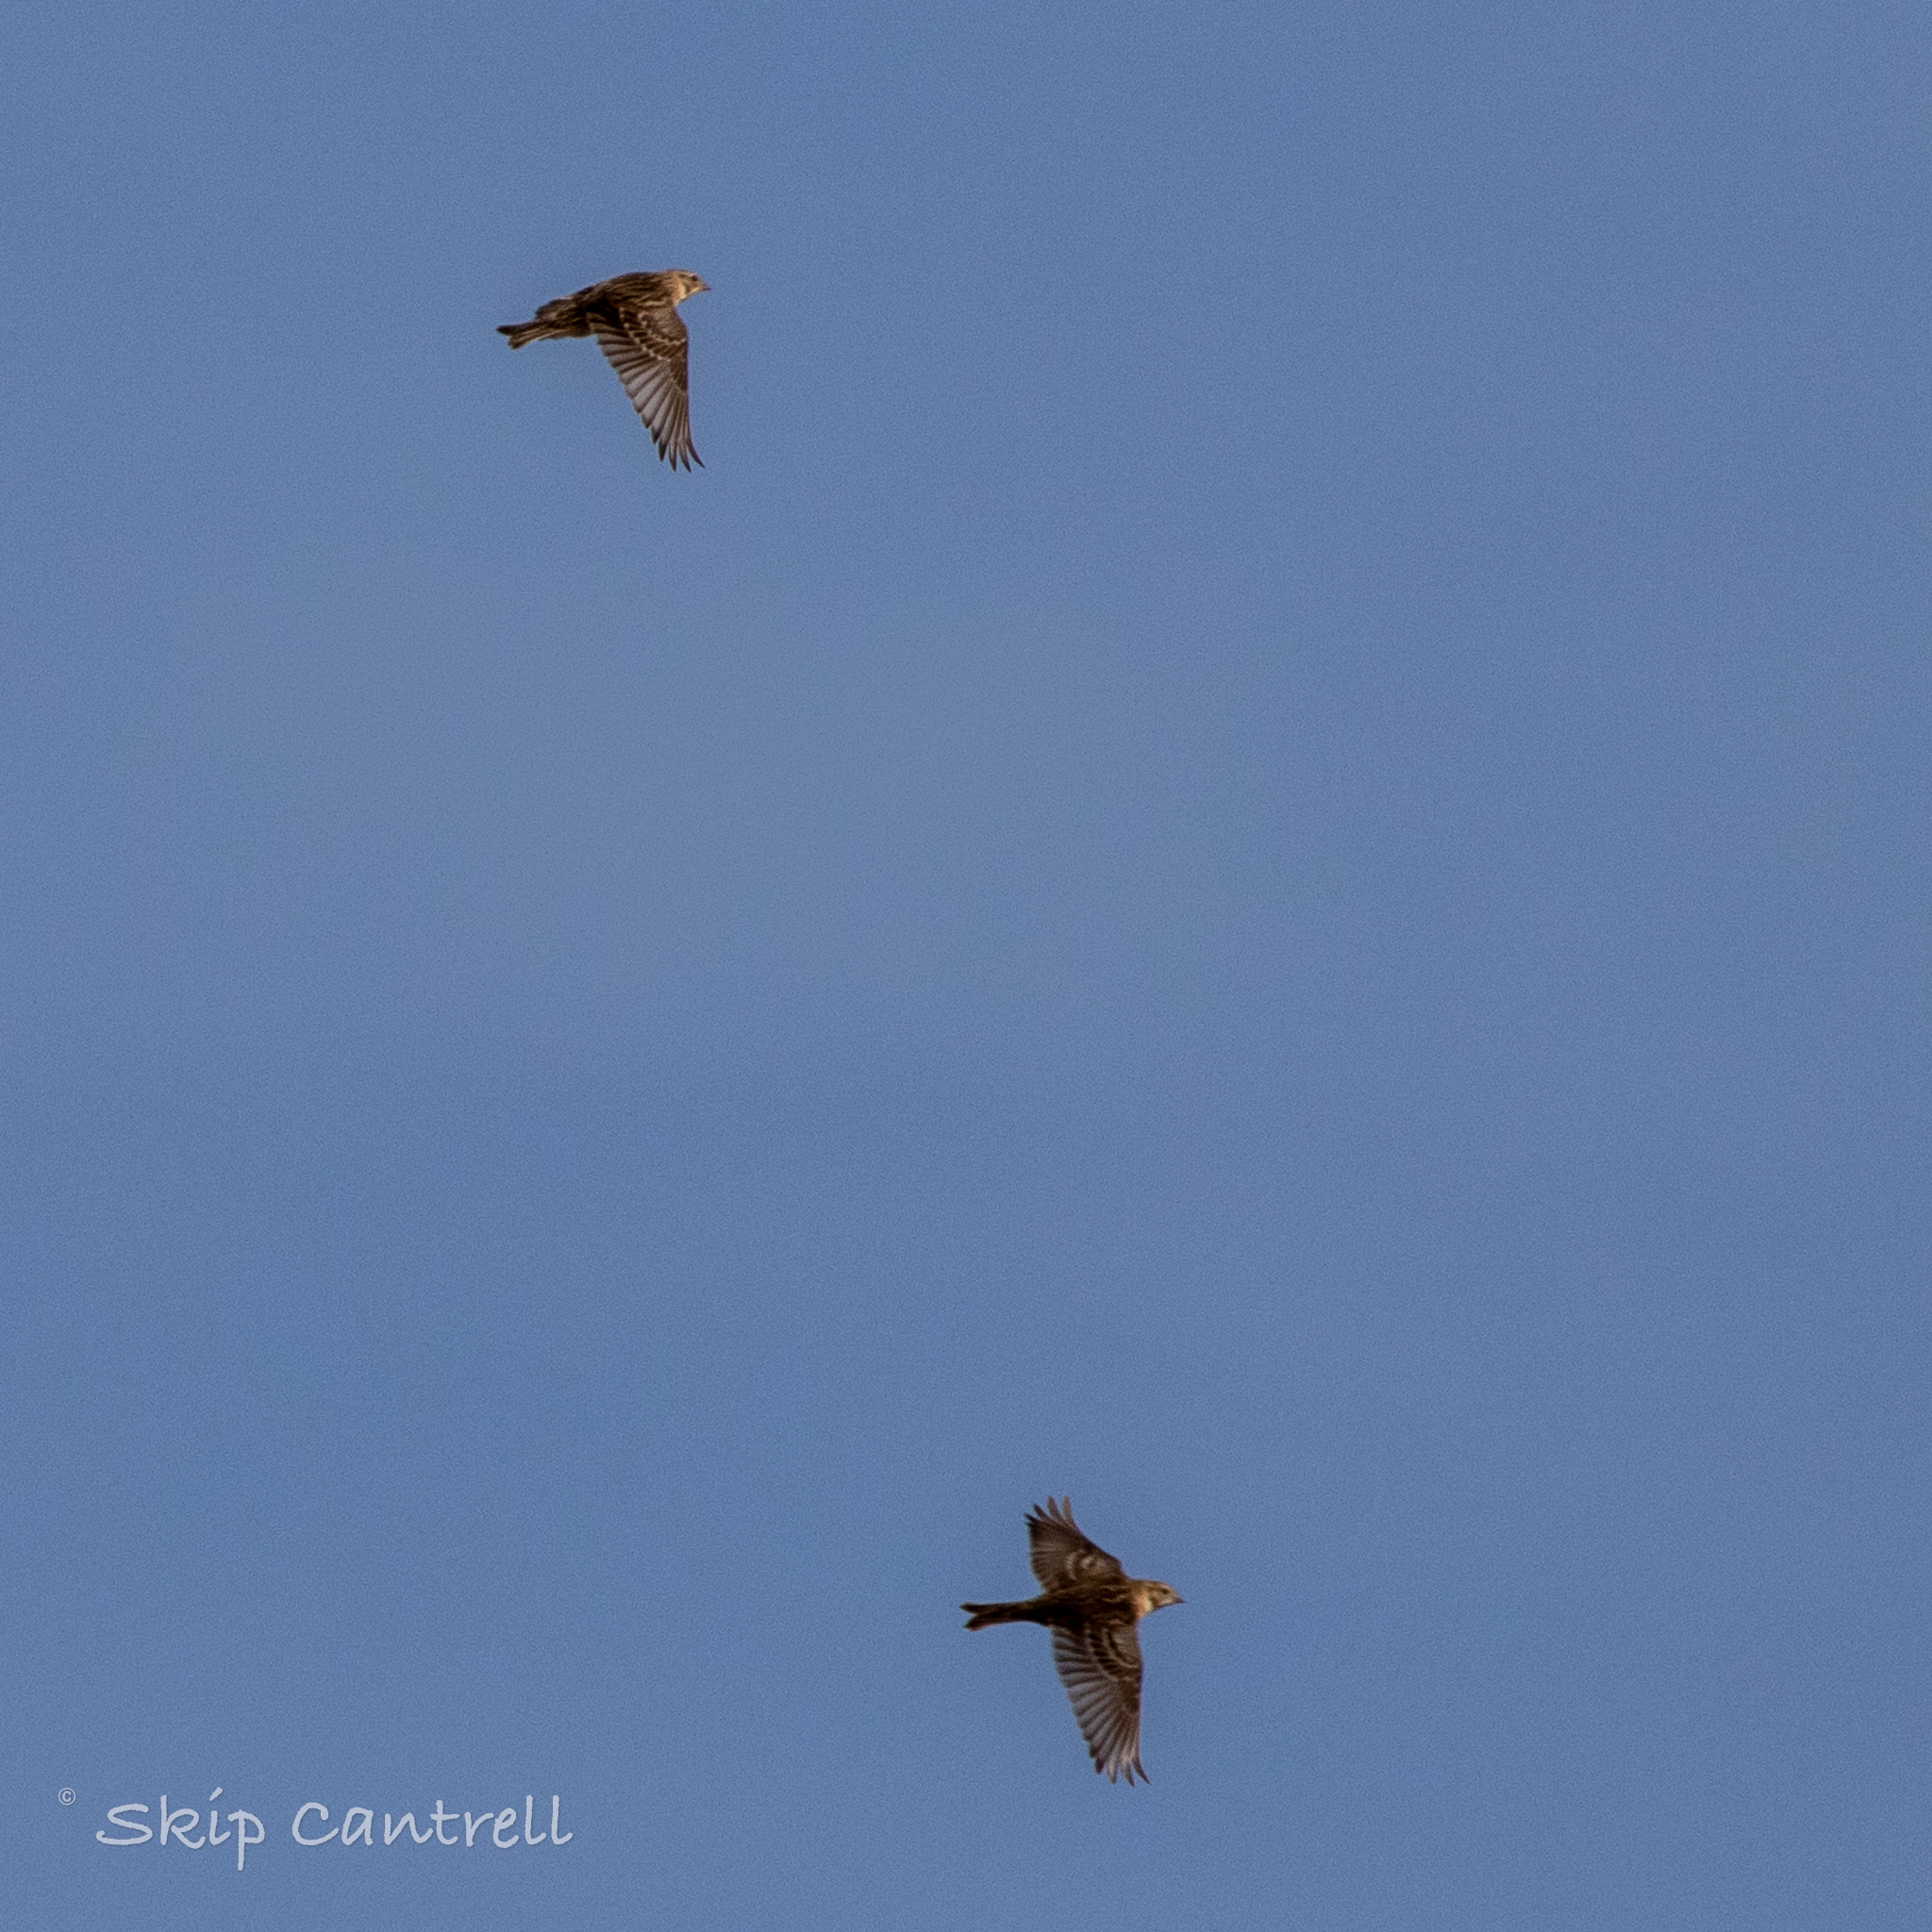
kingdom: Animalia
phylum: Chordata
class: Aves
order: Passeriformes
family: Calcariidae
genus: Calcarius
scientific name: Calcarius lapponicus
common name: Lapland longspur
